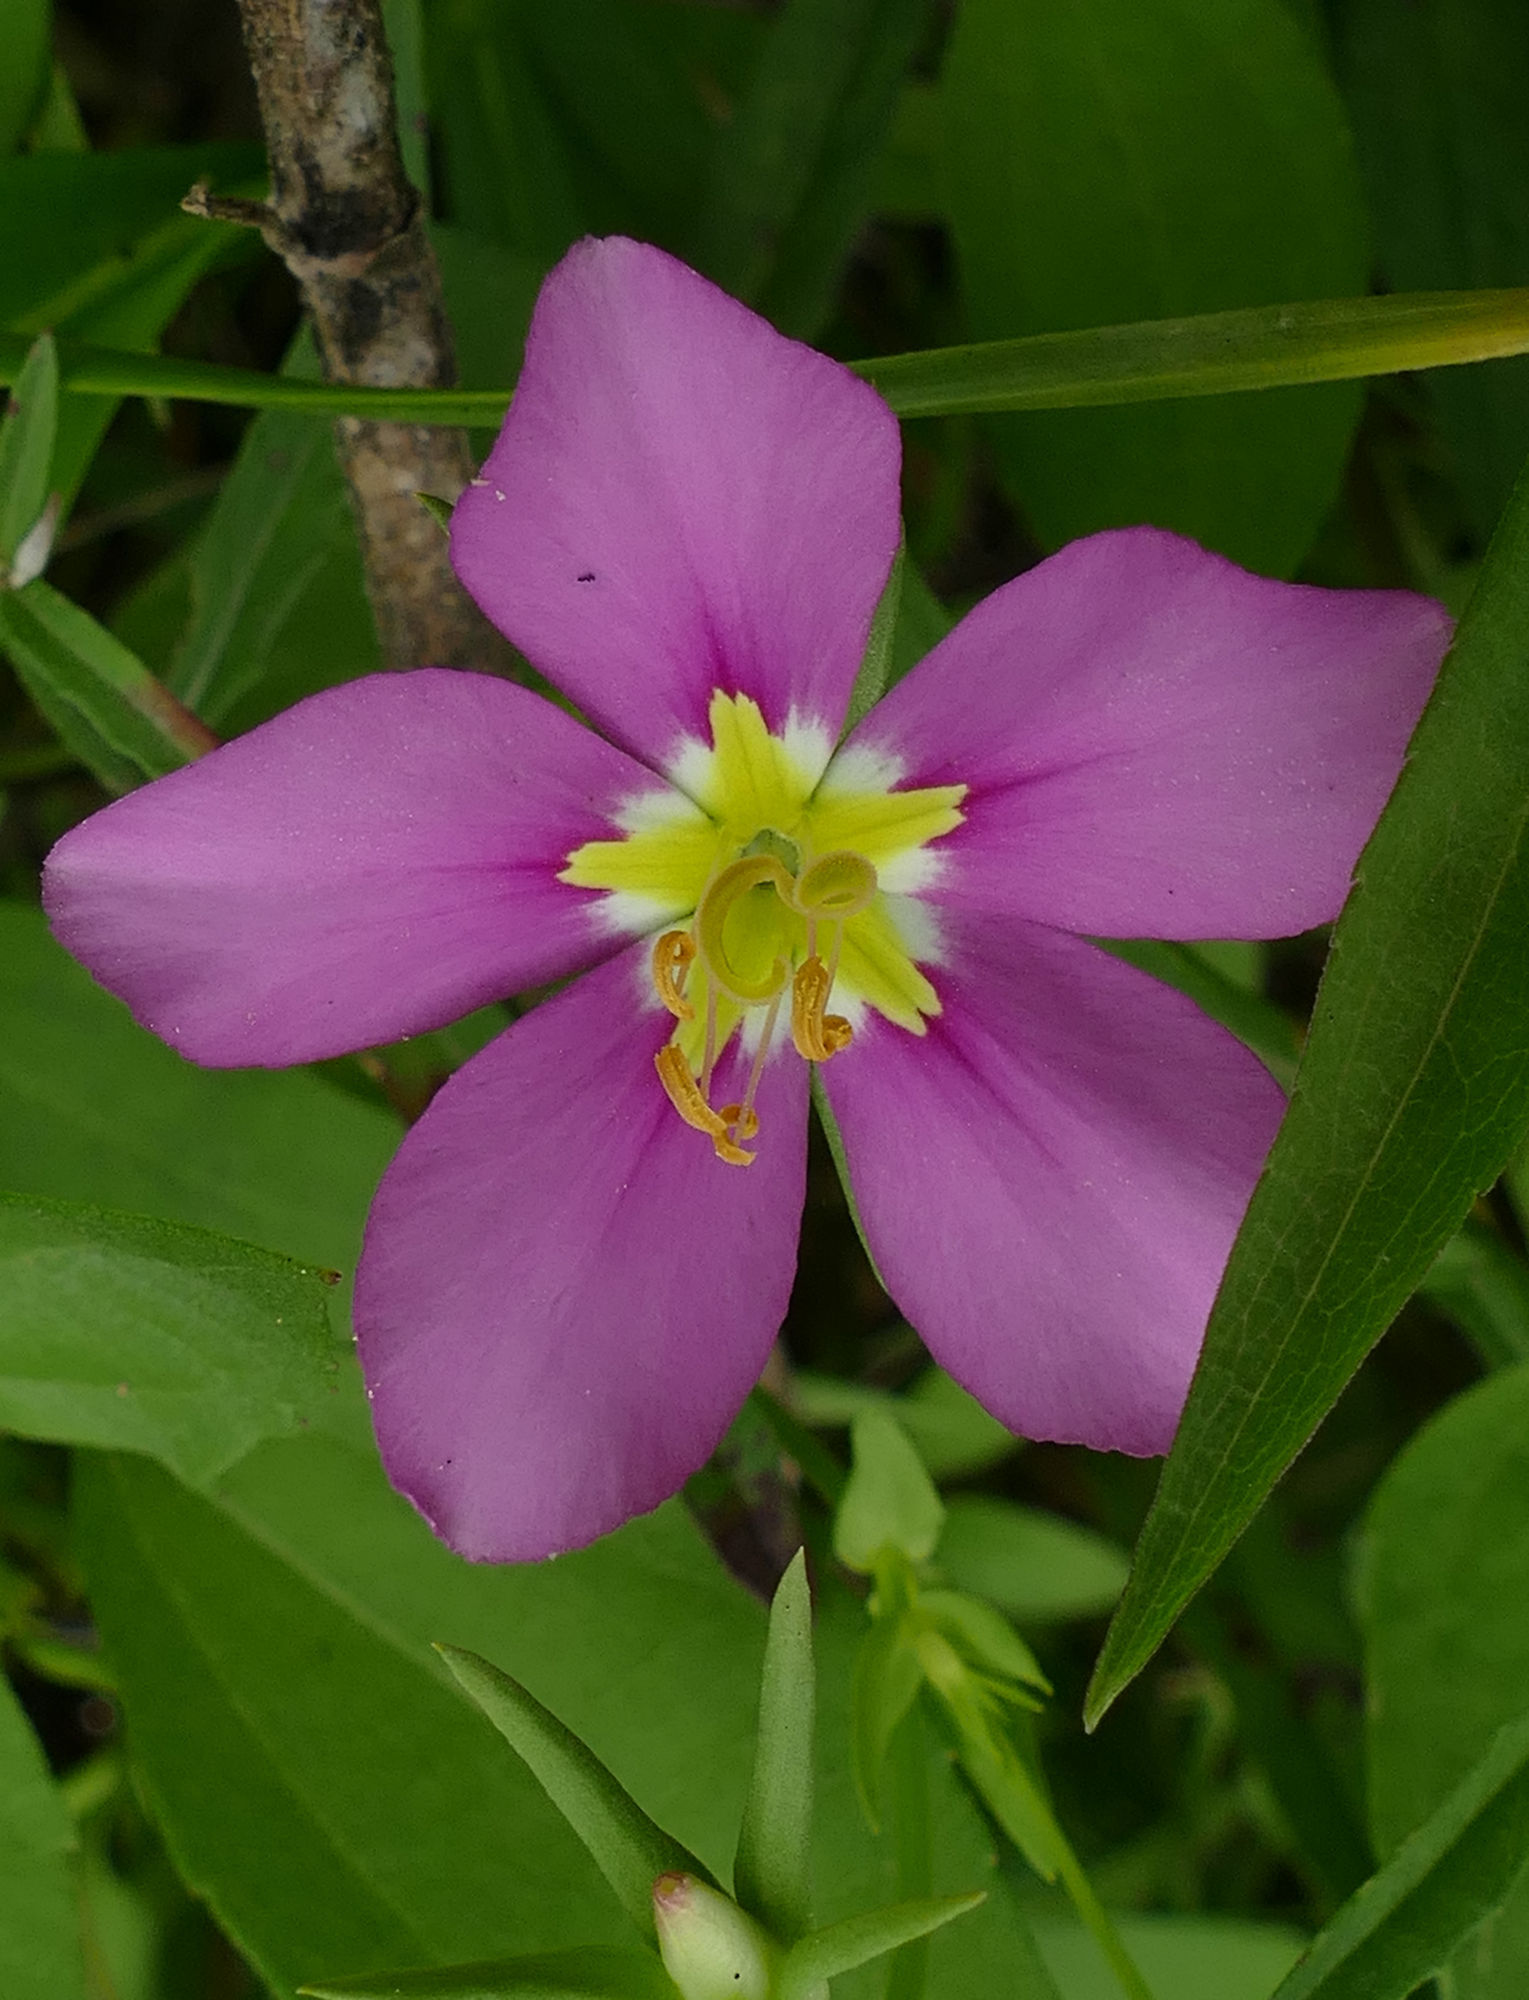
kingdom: Plantae
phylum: Tracheophyta
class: Magnoliopsida
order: Gentianales
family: Gentianaceae
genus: Sabatia
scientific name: Sabatia campestris
